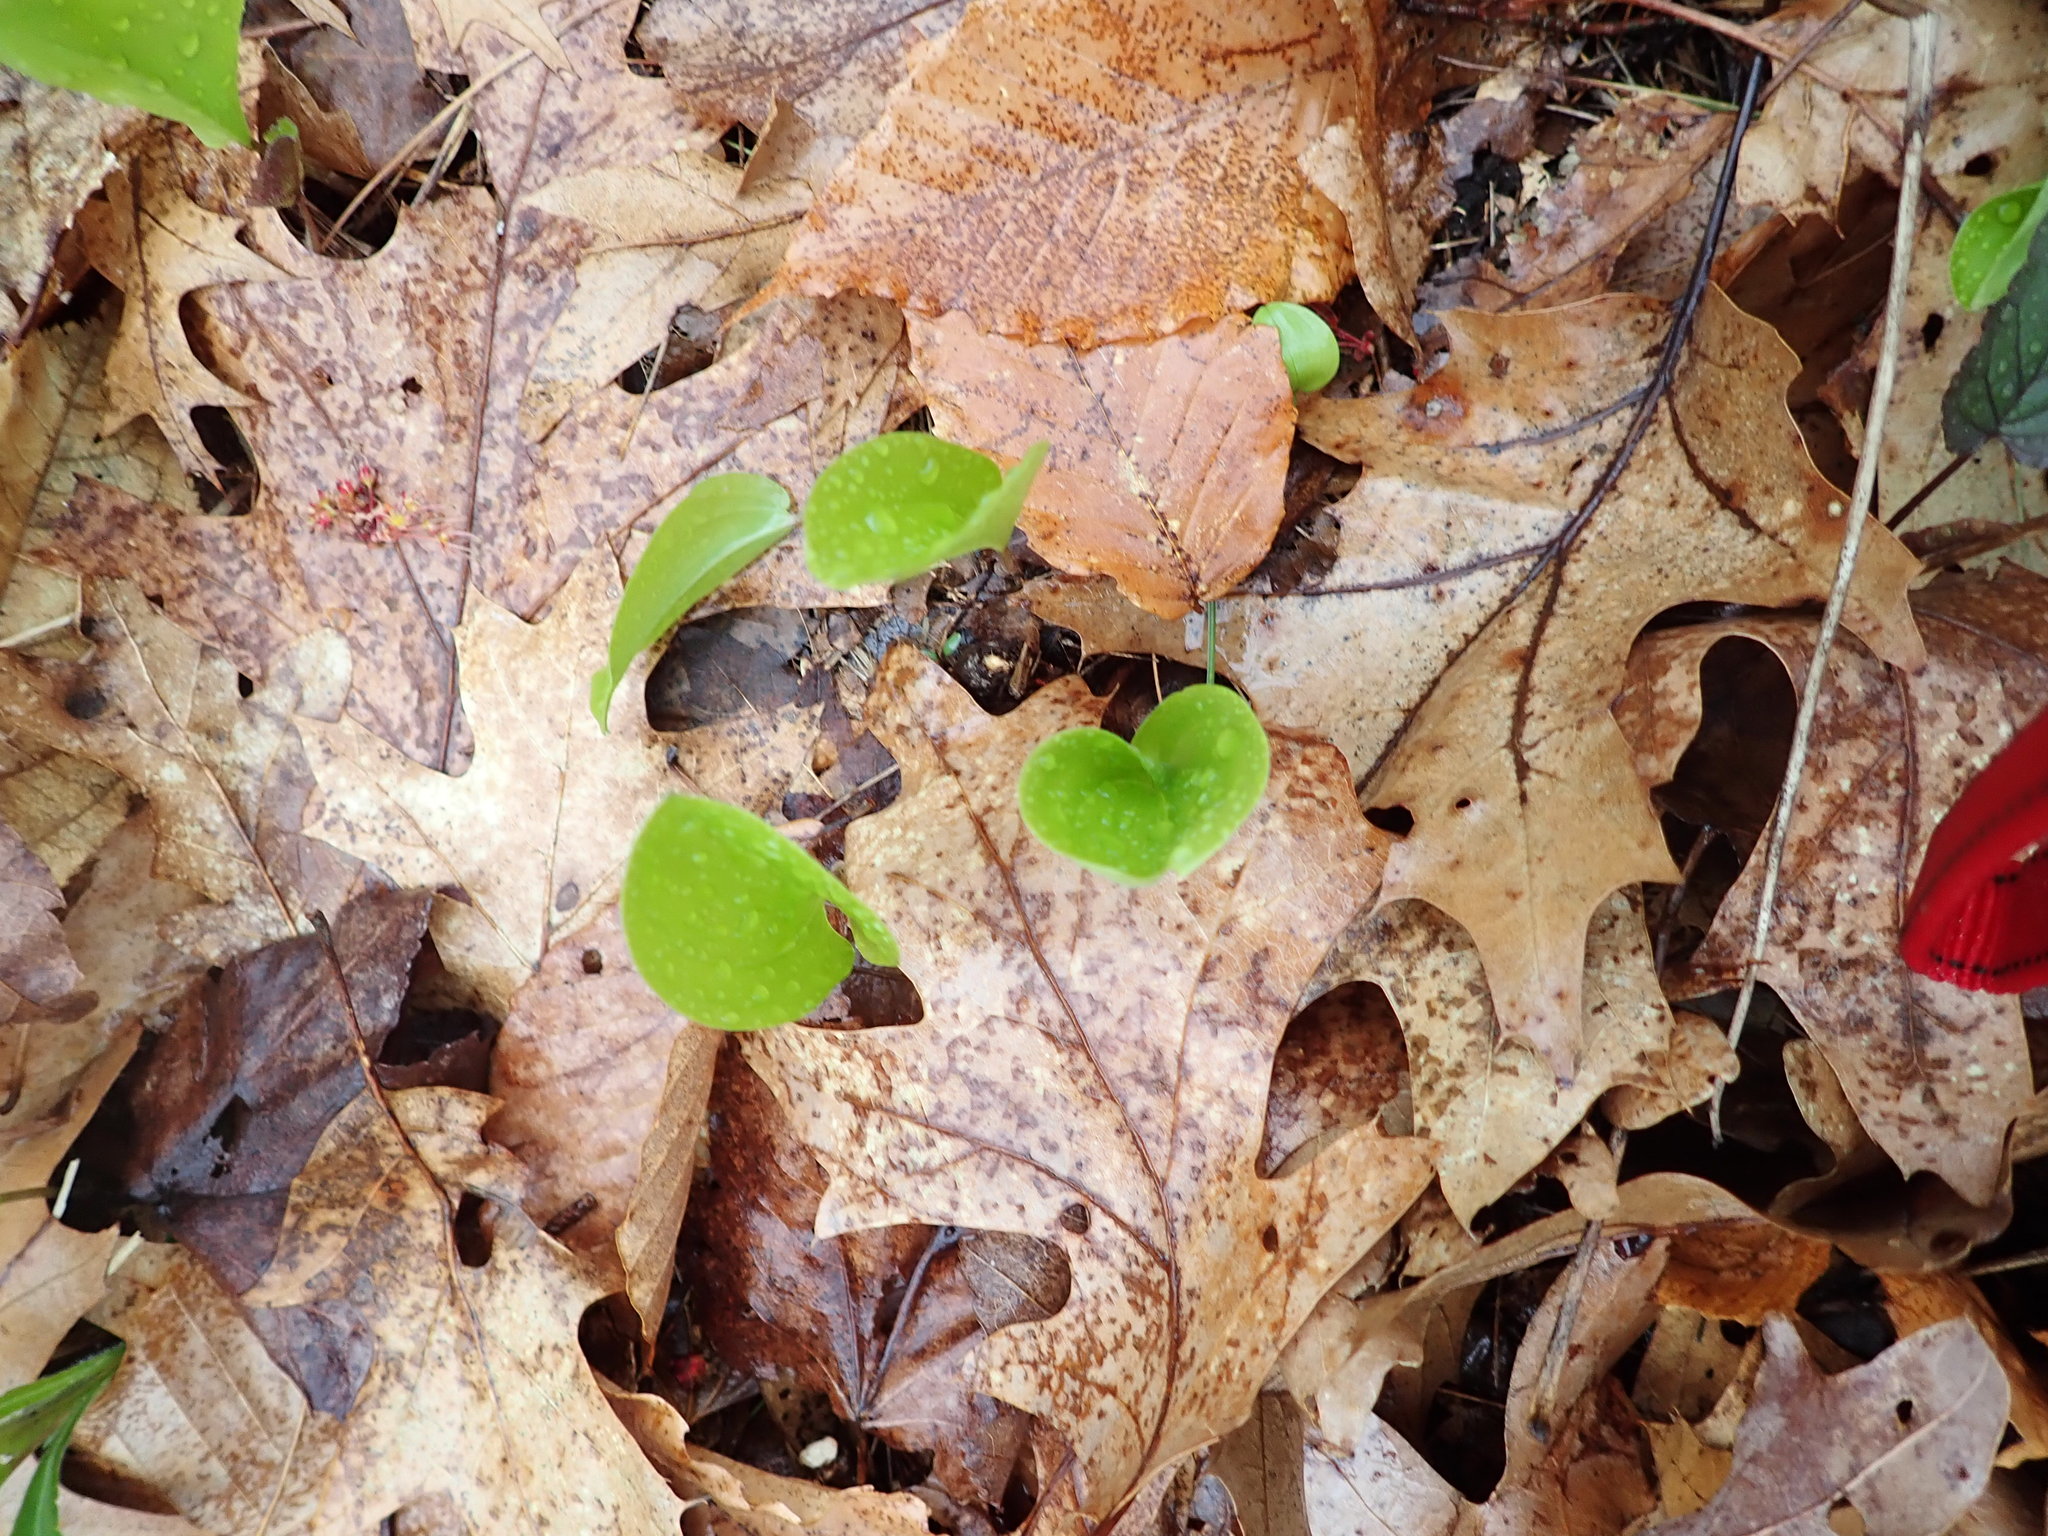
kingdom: Plantae
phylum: Tracheophyta
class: Liliopsida
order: Asparagales
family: Asparagaceae
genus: Maianthemum
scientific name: Maianthemum canadense
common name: False lily-of-the-valley
